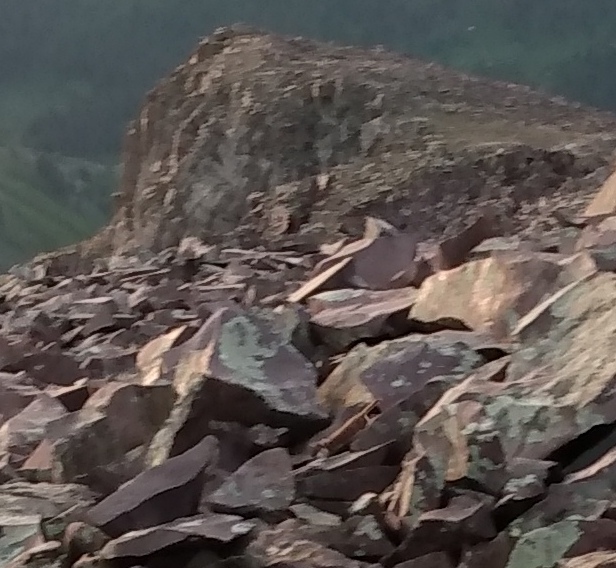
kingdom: Animalia
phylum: Chordata
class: Mammalia
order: Carnivora
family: Mustelidae
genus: Mustela
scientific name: Mustela erminea
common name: Stoat
